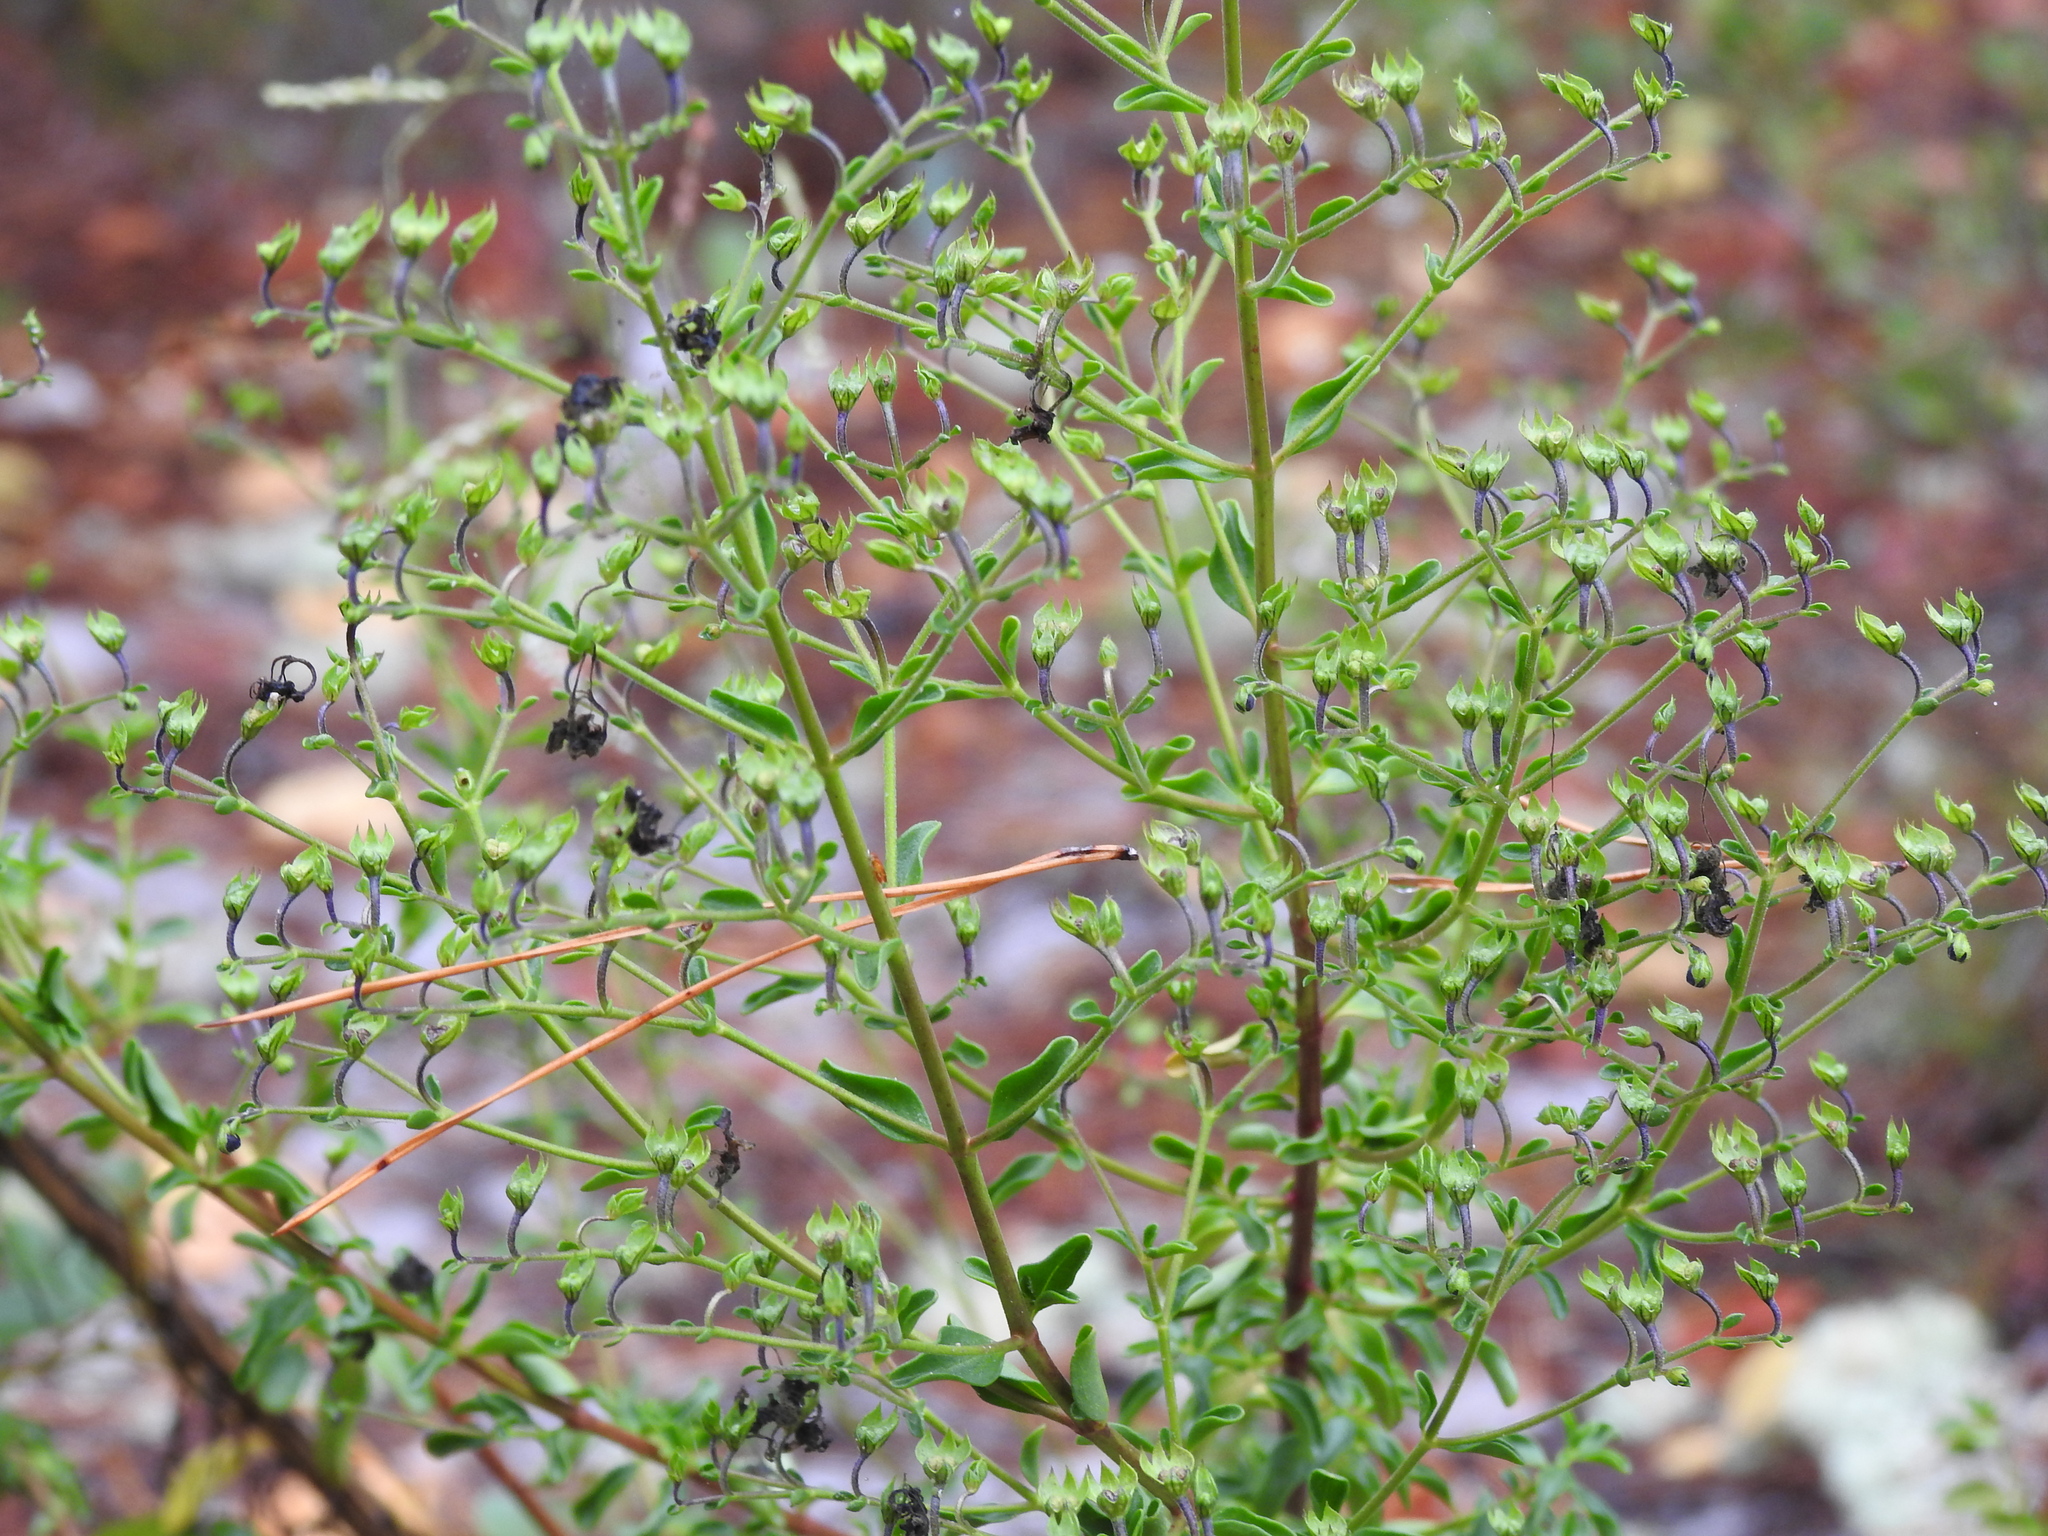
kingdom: Plantae
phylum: Tracheophyta
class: Magnoliopsida
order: Lamiales
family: Lamiaceae
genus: Trichostema
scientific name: Trichostema suffrutescens
